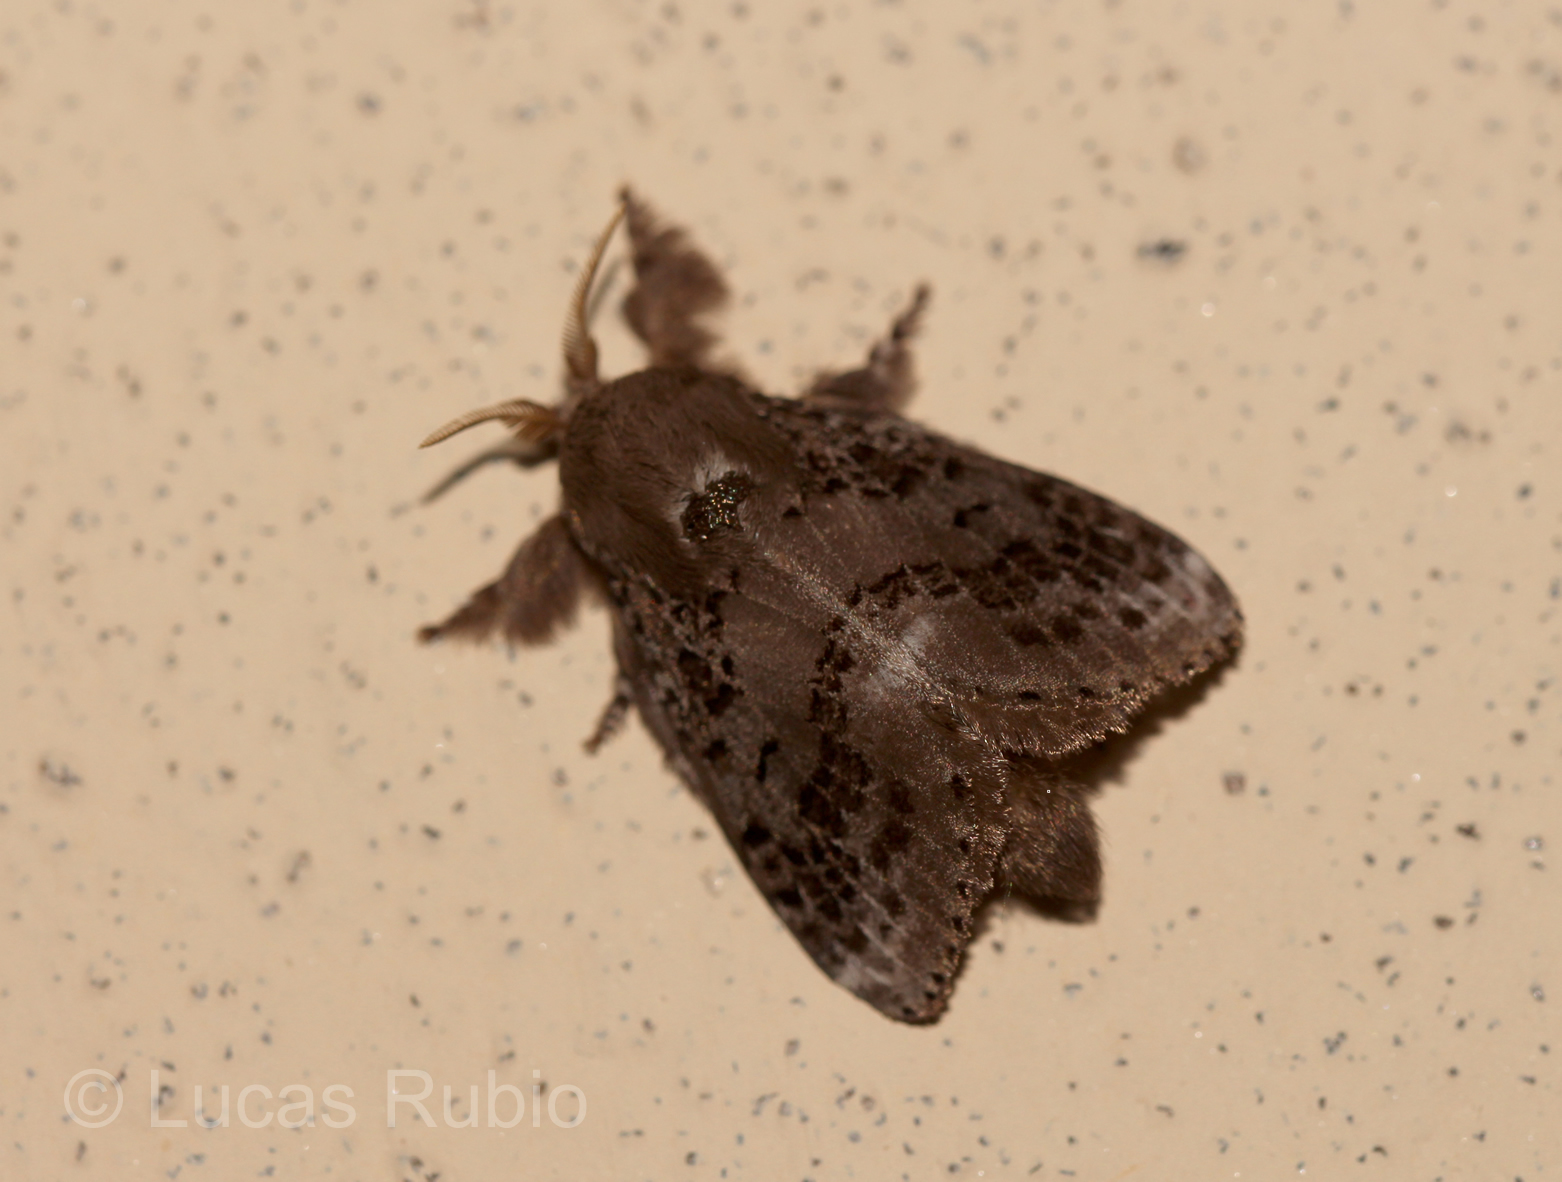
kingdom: Animalia
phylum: Arthropoda
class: Insecta
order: Lepidoptera
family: Lasiocampidae
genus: Euglyphis
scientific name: Euglyphis guttularis
